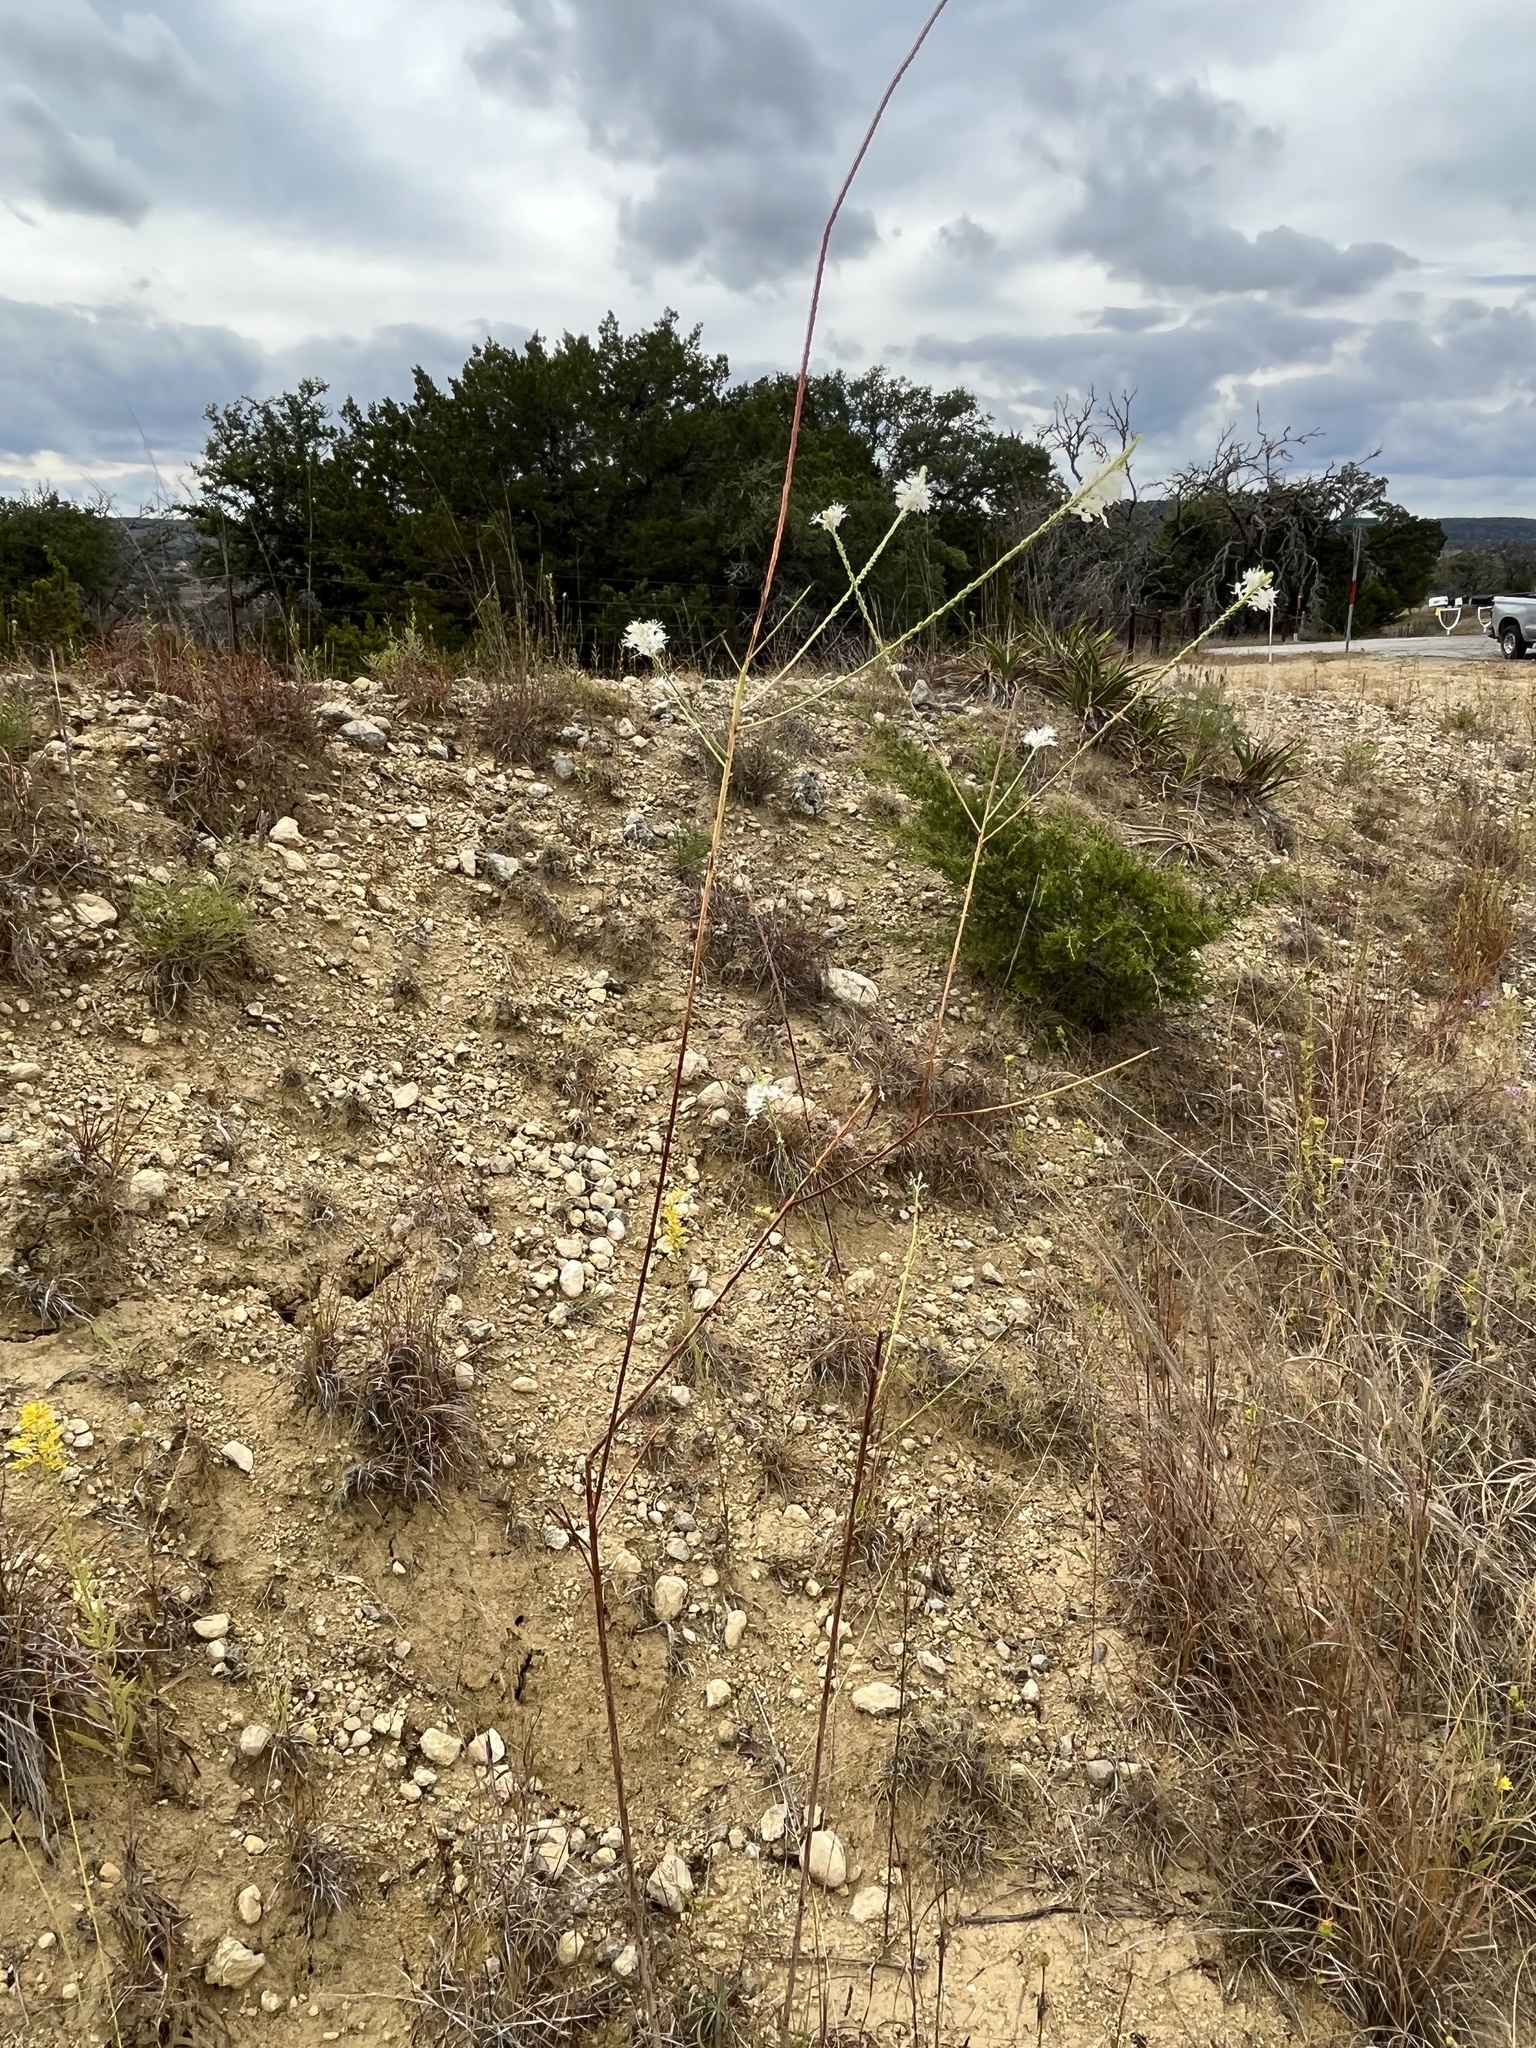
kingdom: Plantae
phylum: Tracheophyta
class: Magnoliopsida
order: Myrtales
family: Onagraceae
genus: Oenothera
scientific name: Oenothera glaucifolia
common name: False gaura
